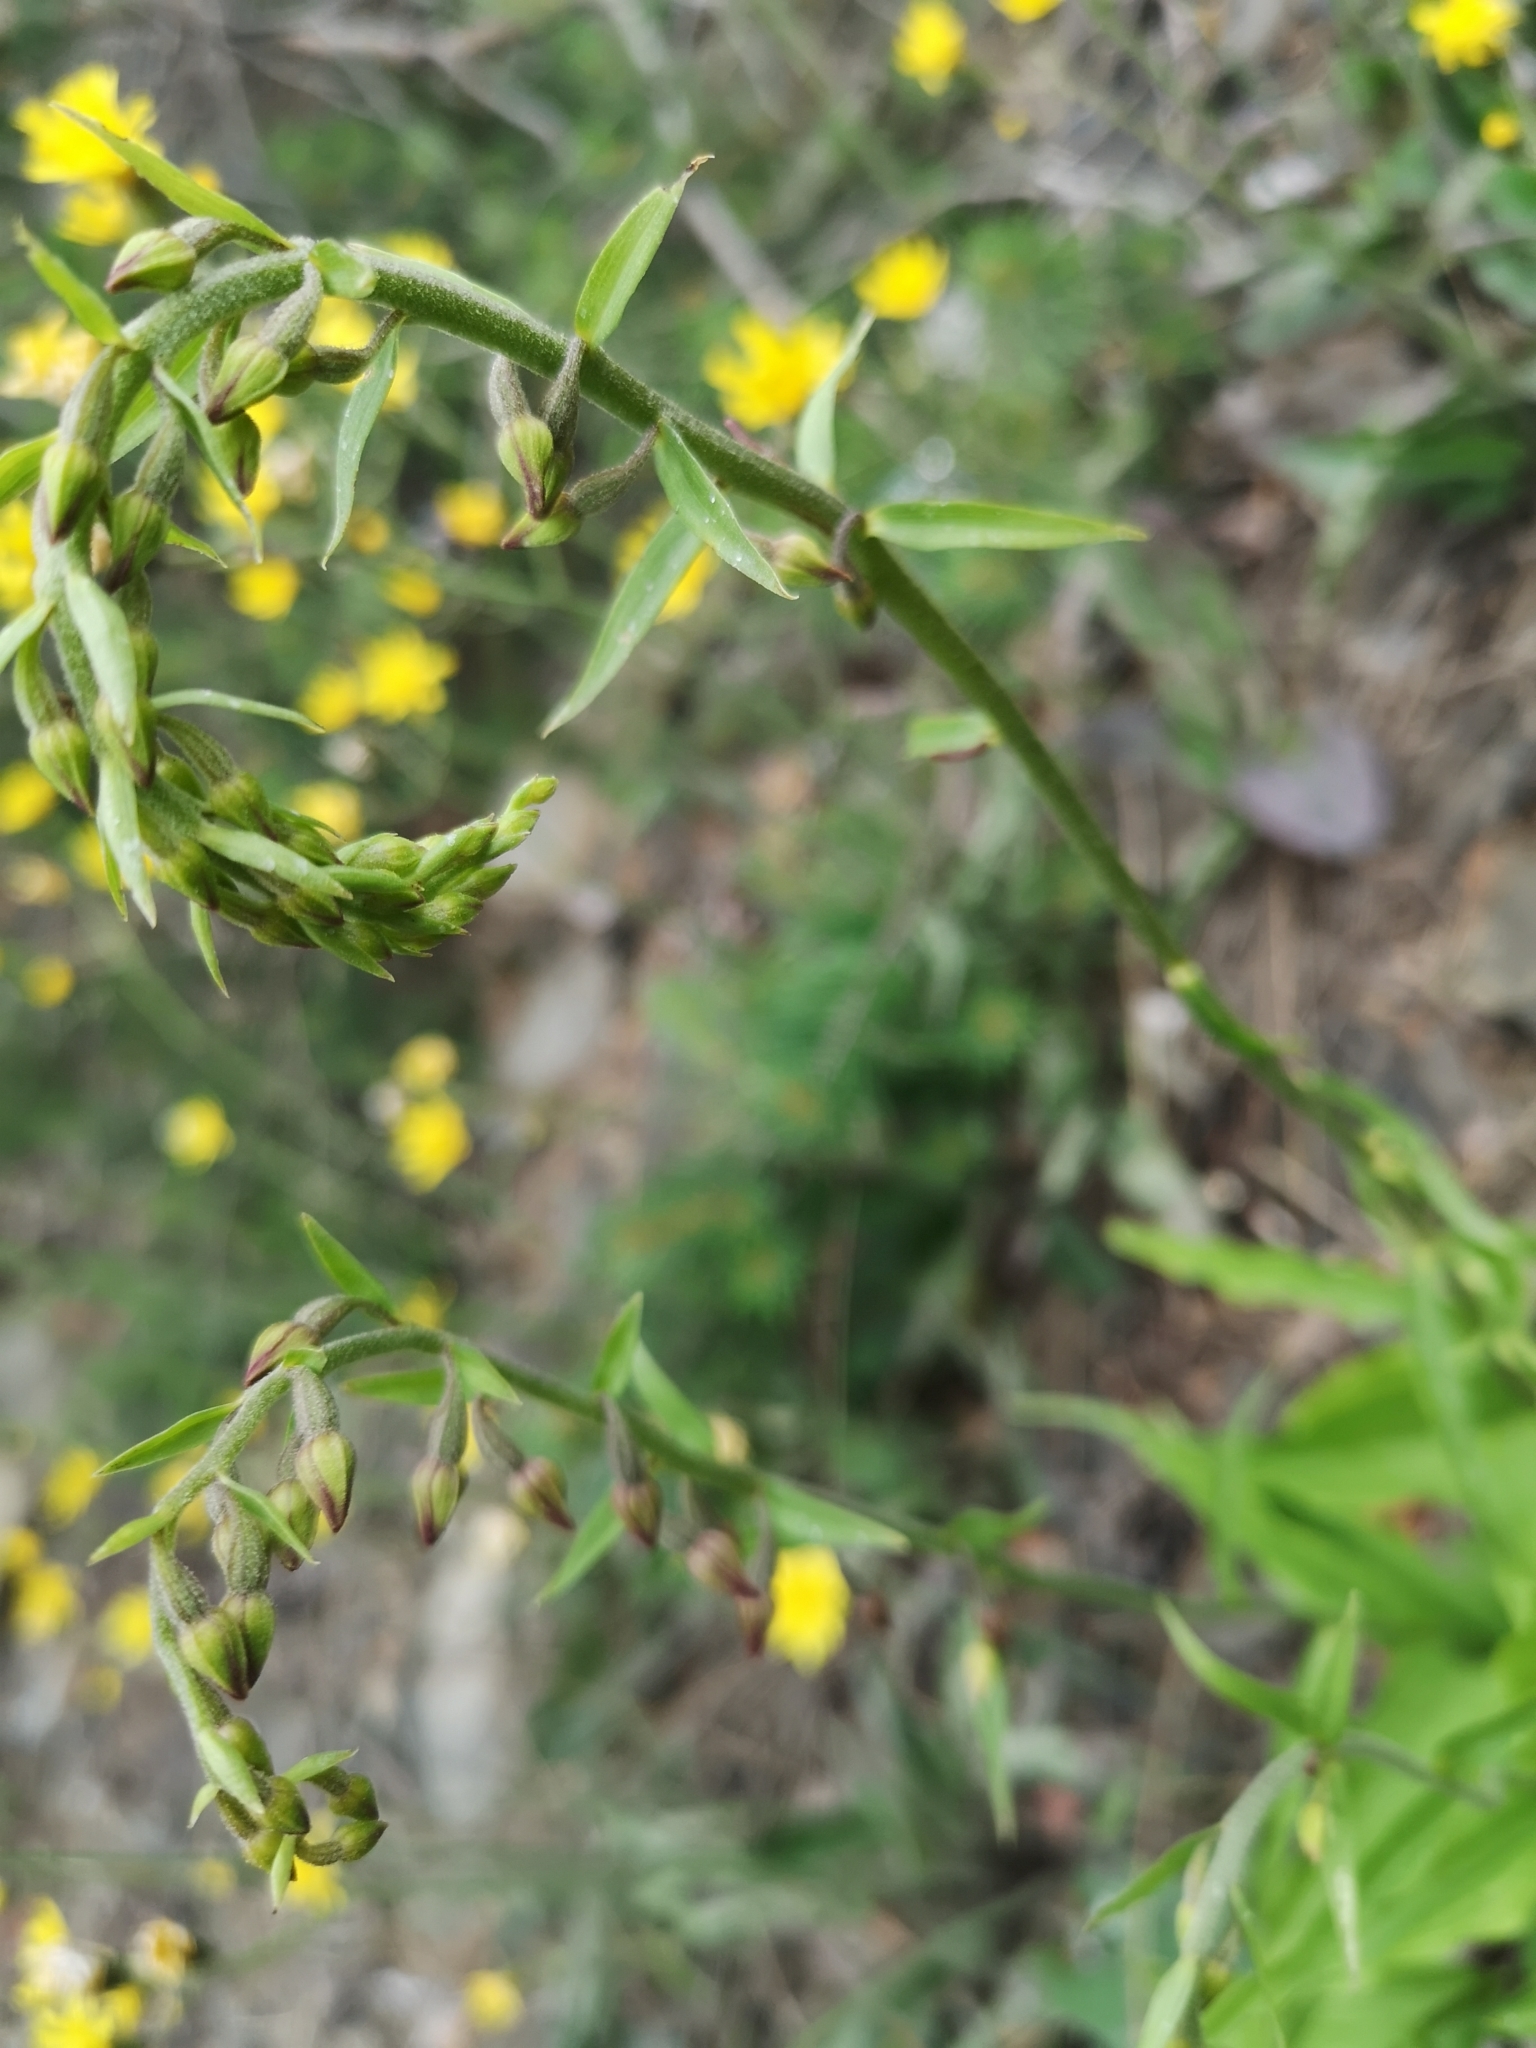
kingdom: Plantae
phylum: Tracheophyta
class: Liliopsida
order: Asparagales
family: Orchidaceae
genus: Epipactis
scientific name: Epipactis atrorubens
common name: Dark-red helleborine
